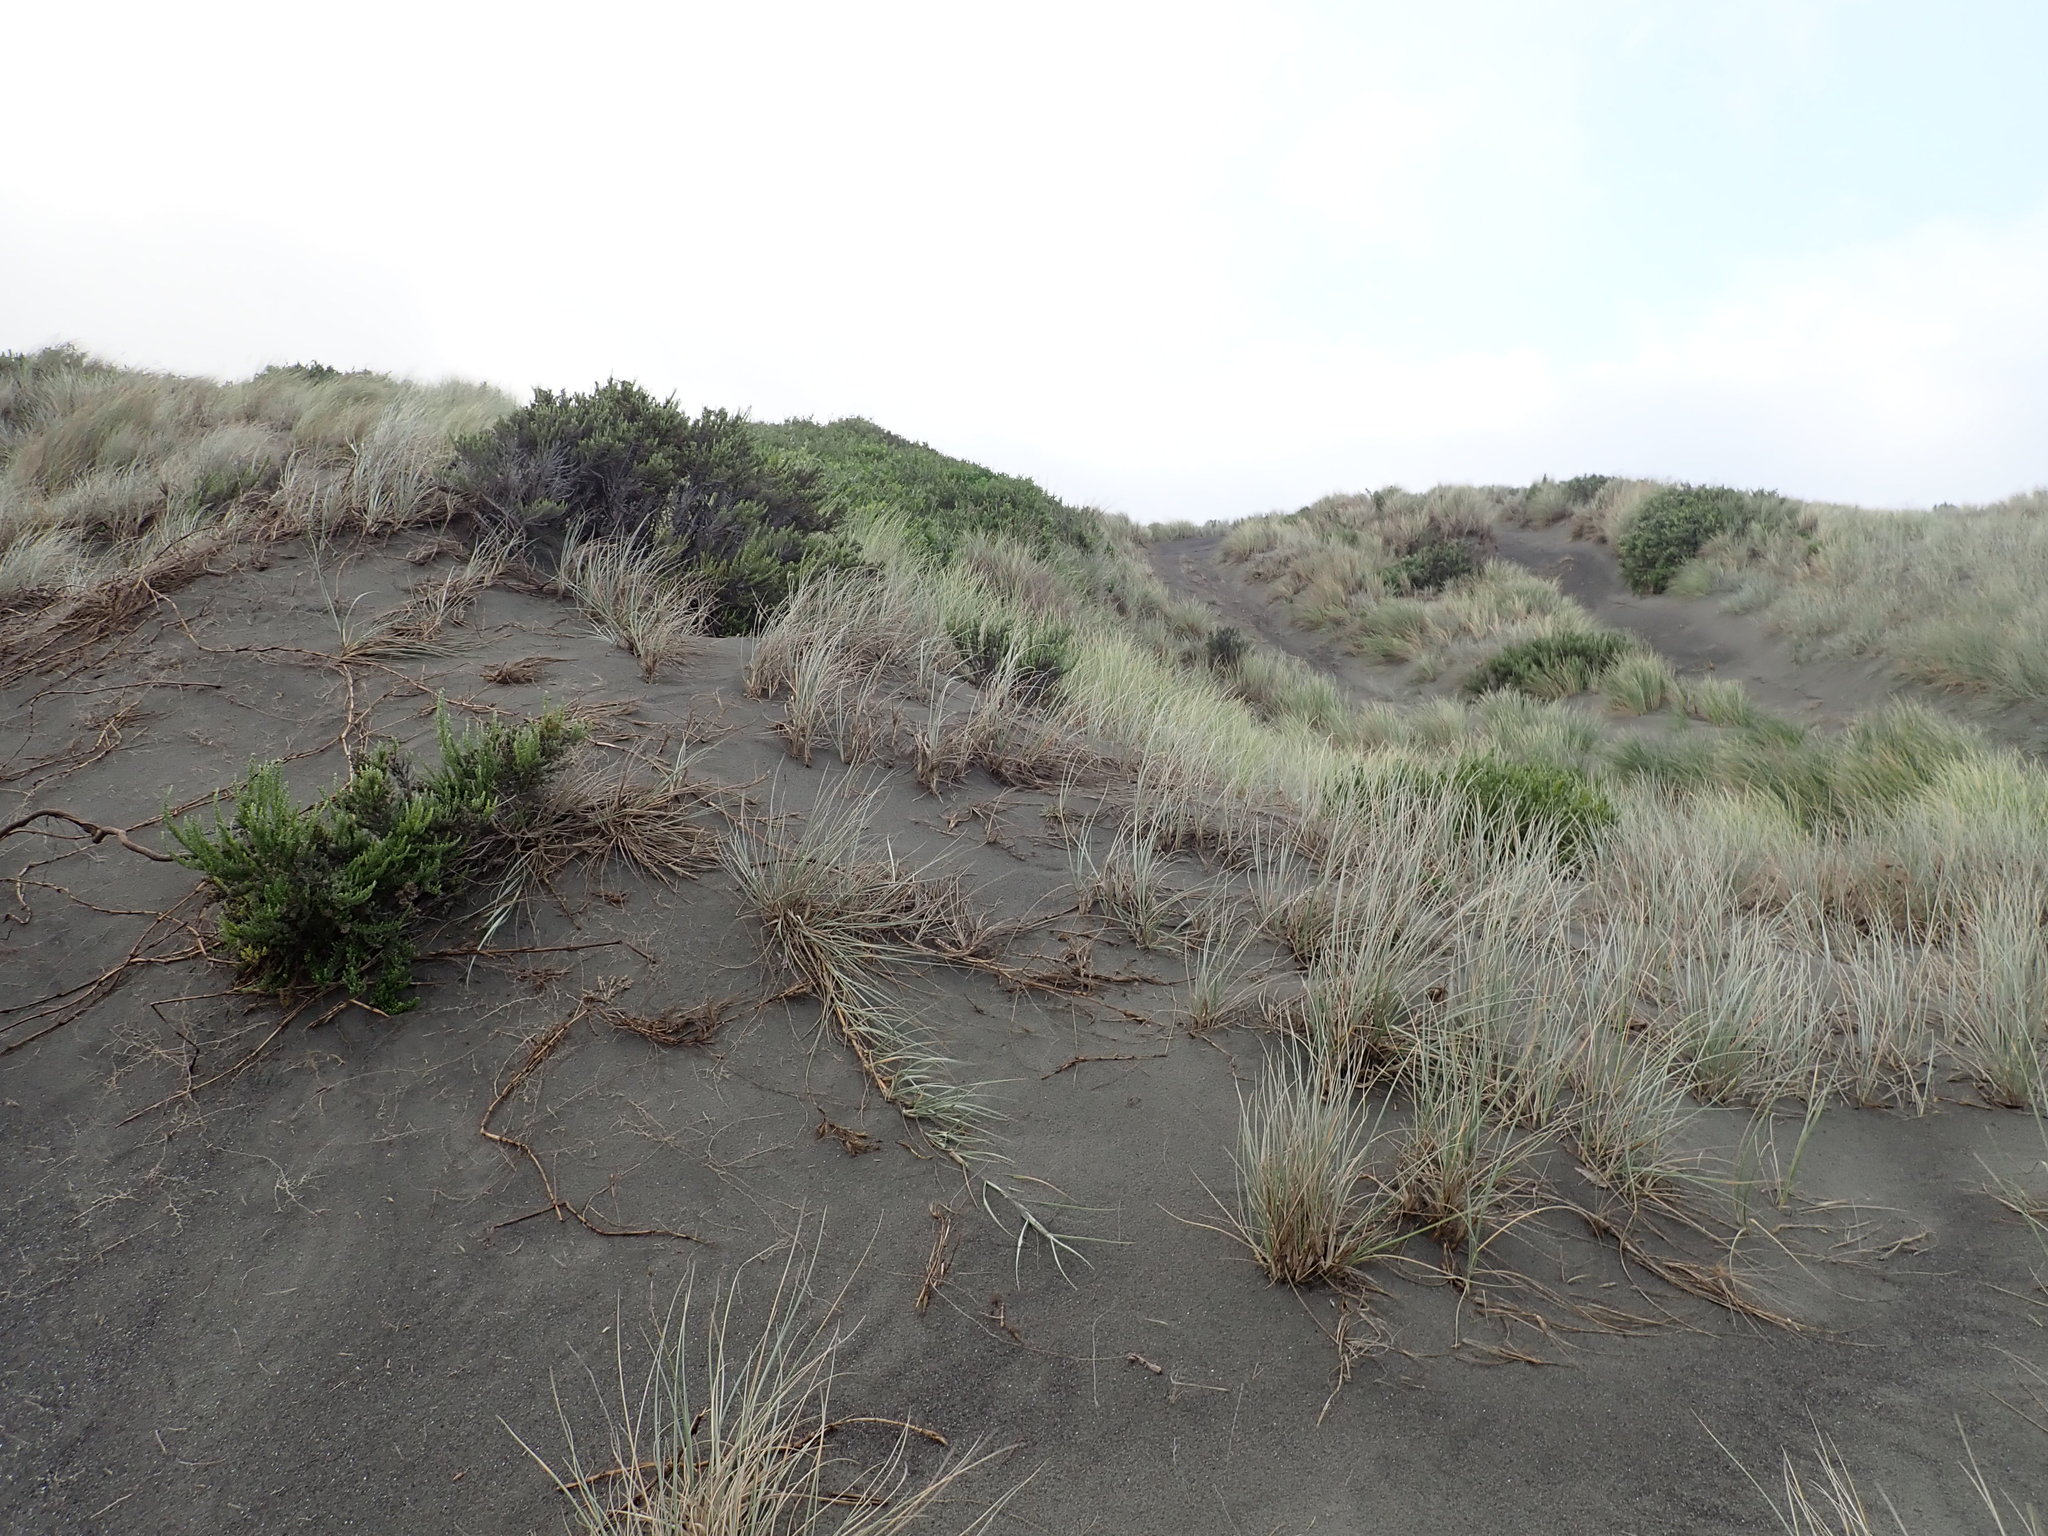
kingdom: Plantae
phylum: Tracheophyta
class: Magnoliopsida
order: Asterales
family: Asteraceae
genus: Ozothamnus
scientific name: Ozothamnus leptophyllus
